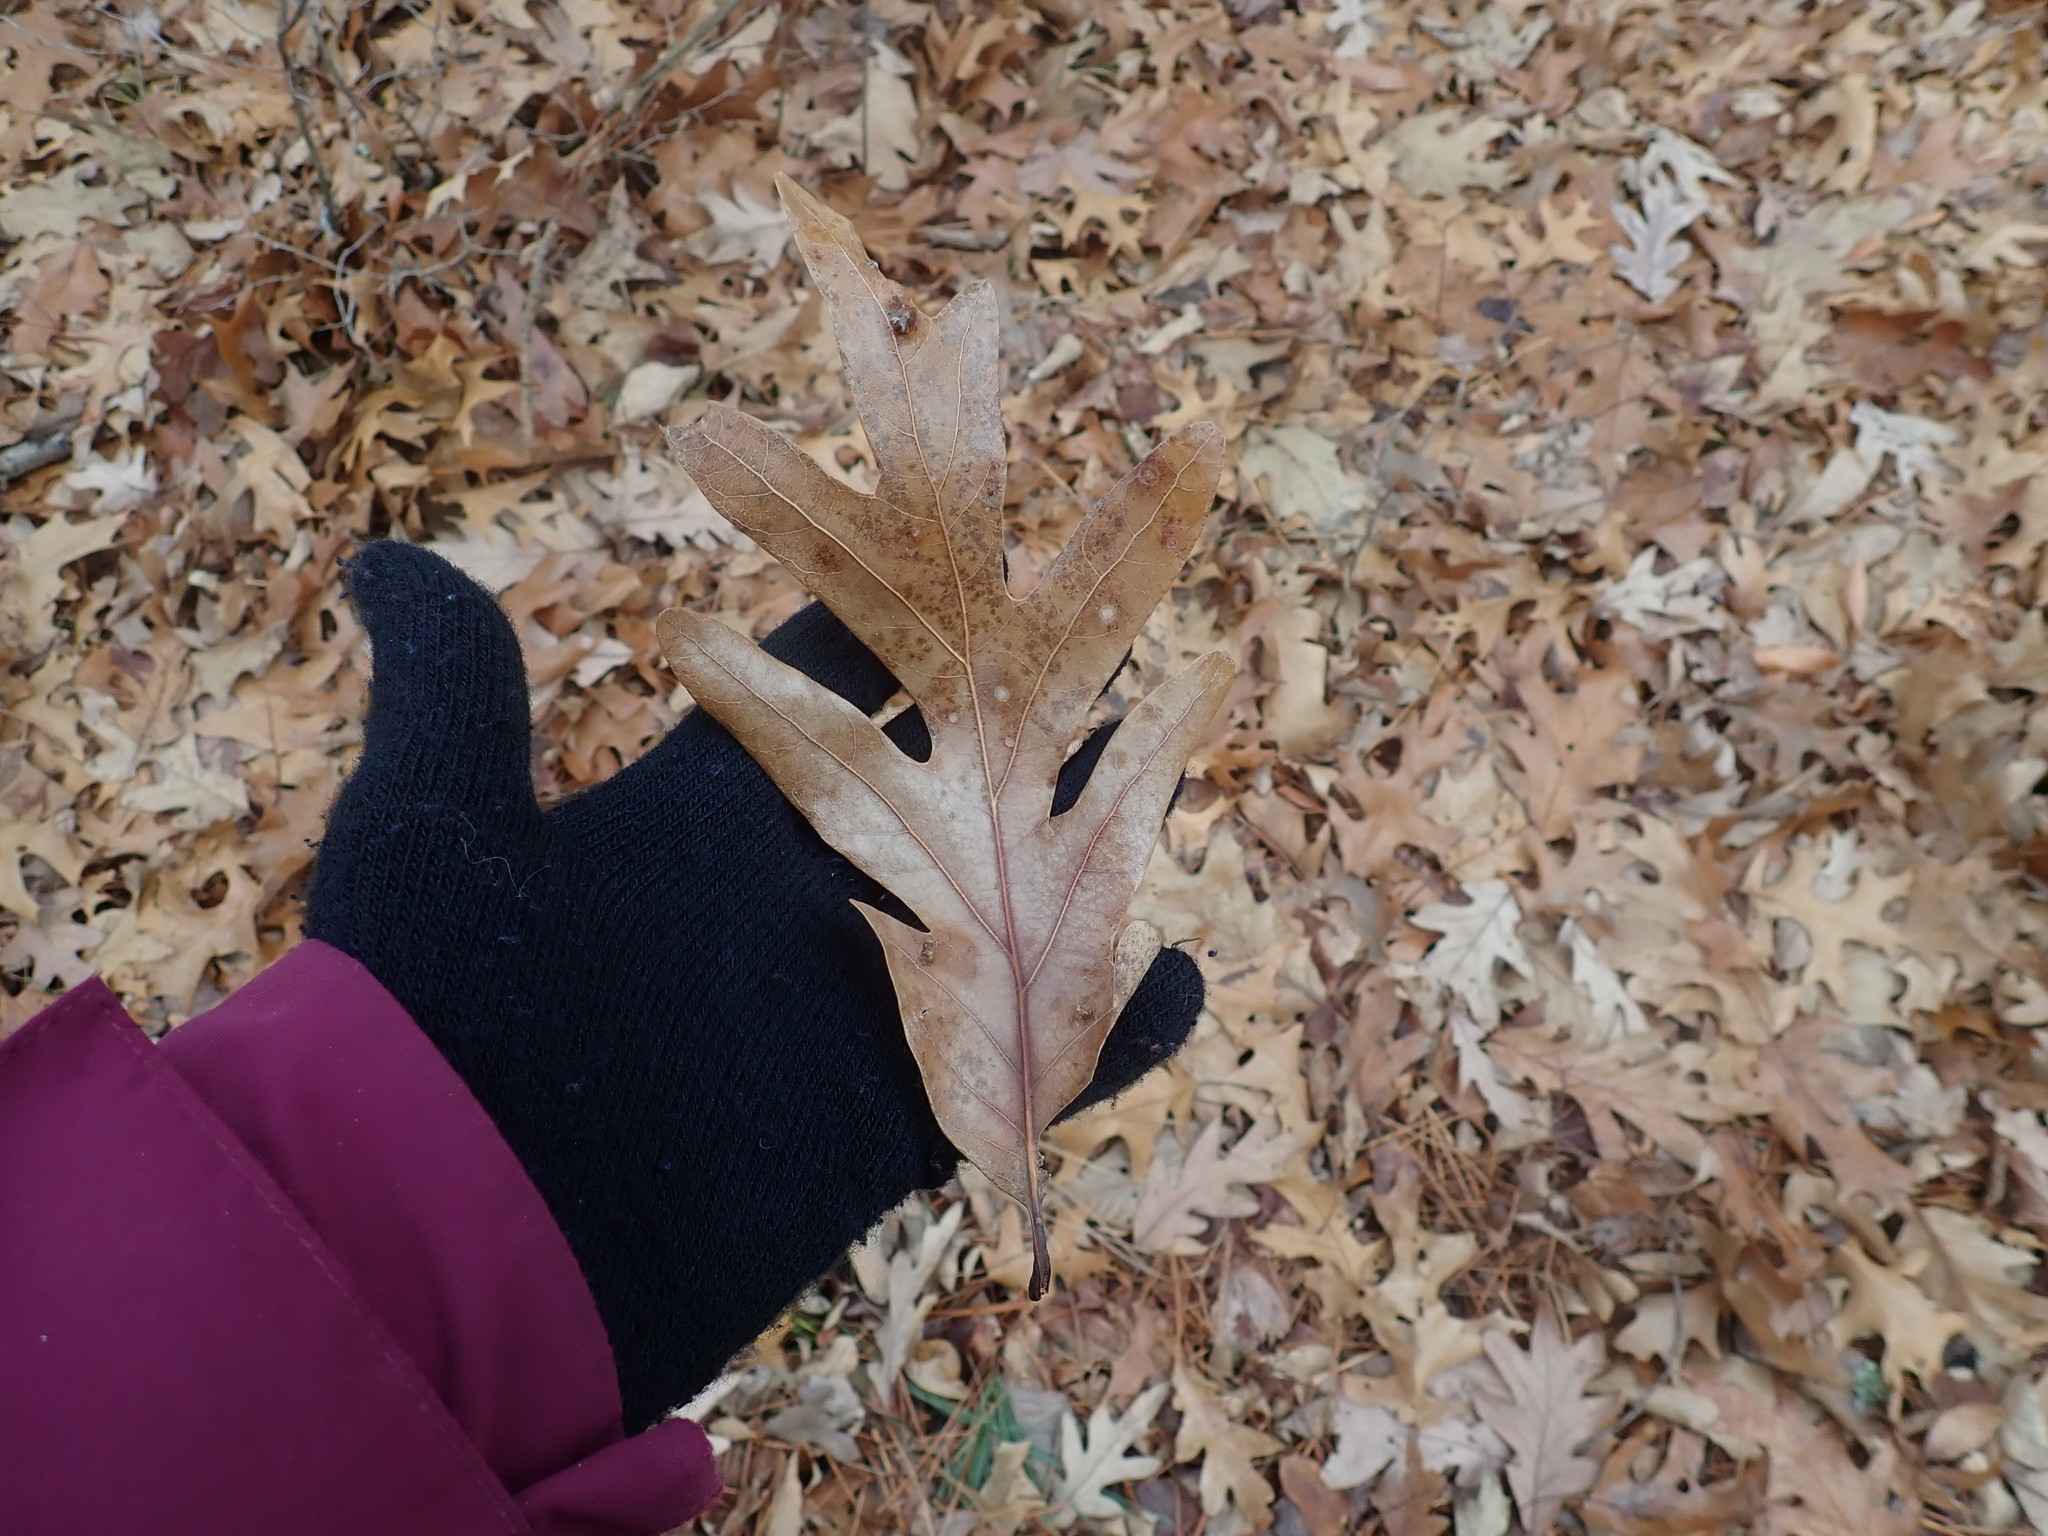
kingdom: Plantae
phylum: Tracheophyta
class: Magnoliopsida
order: Fagales
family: Fagaceae
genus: Quercus
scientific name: Quercus alba
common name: White oak
